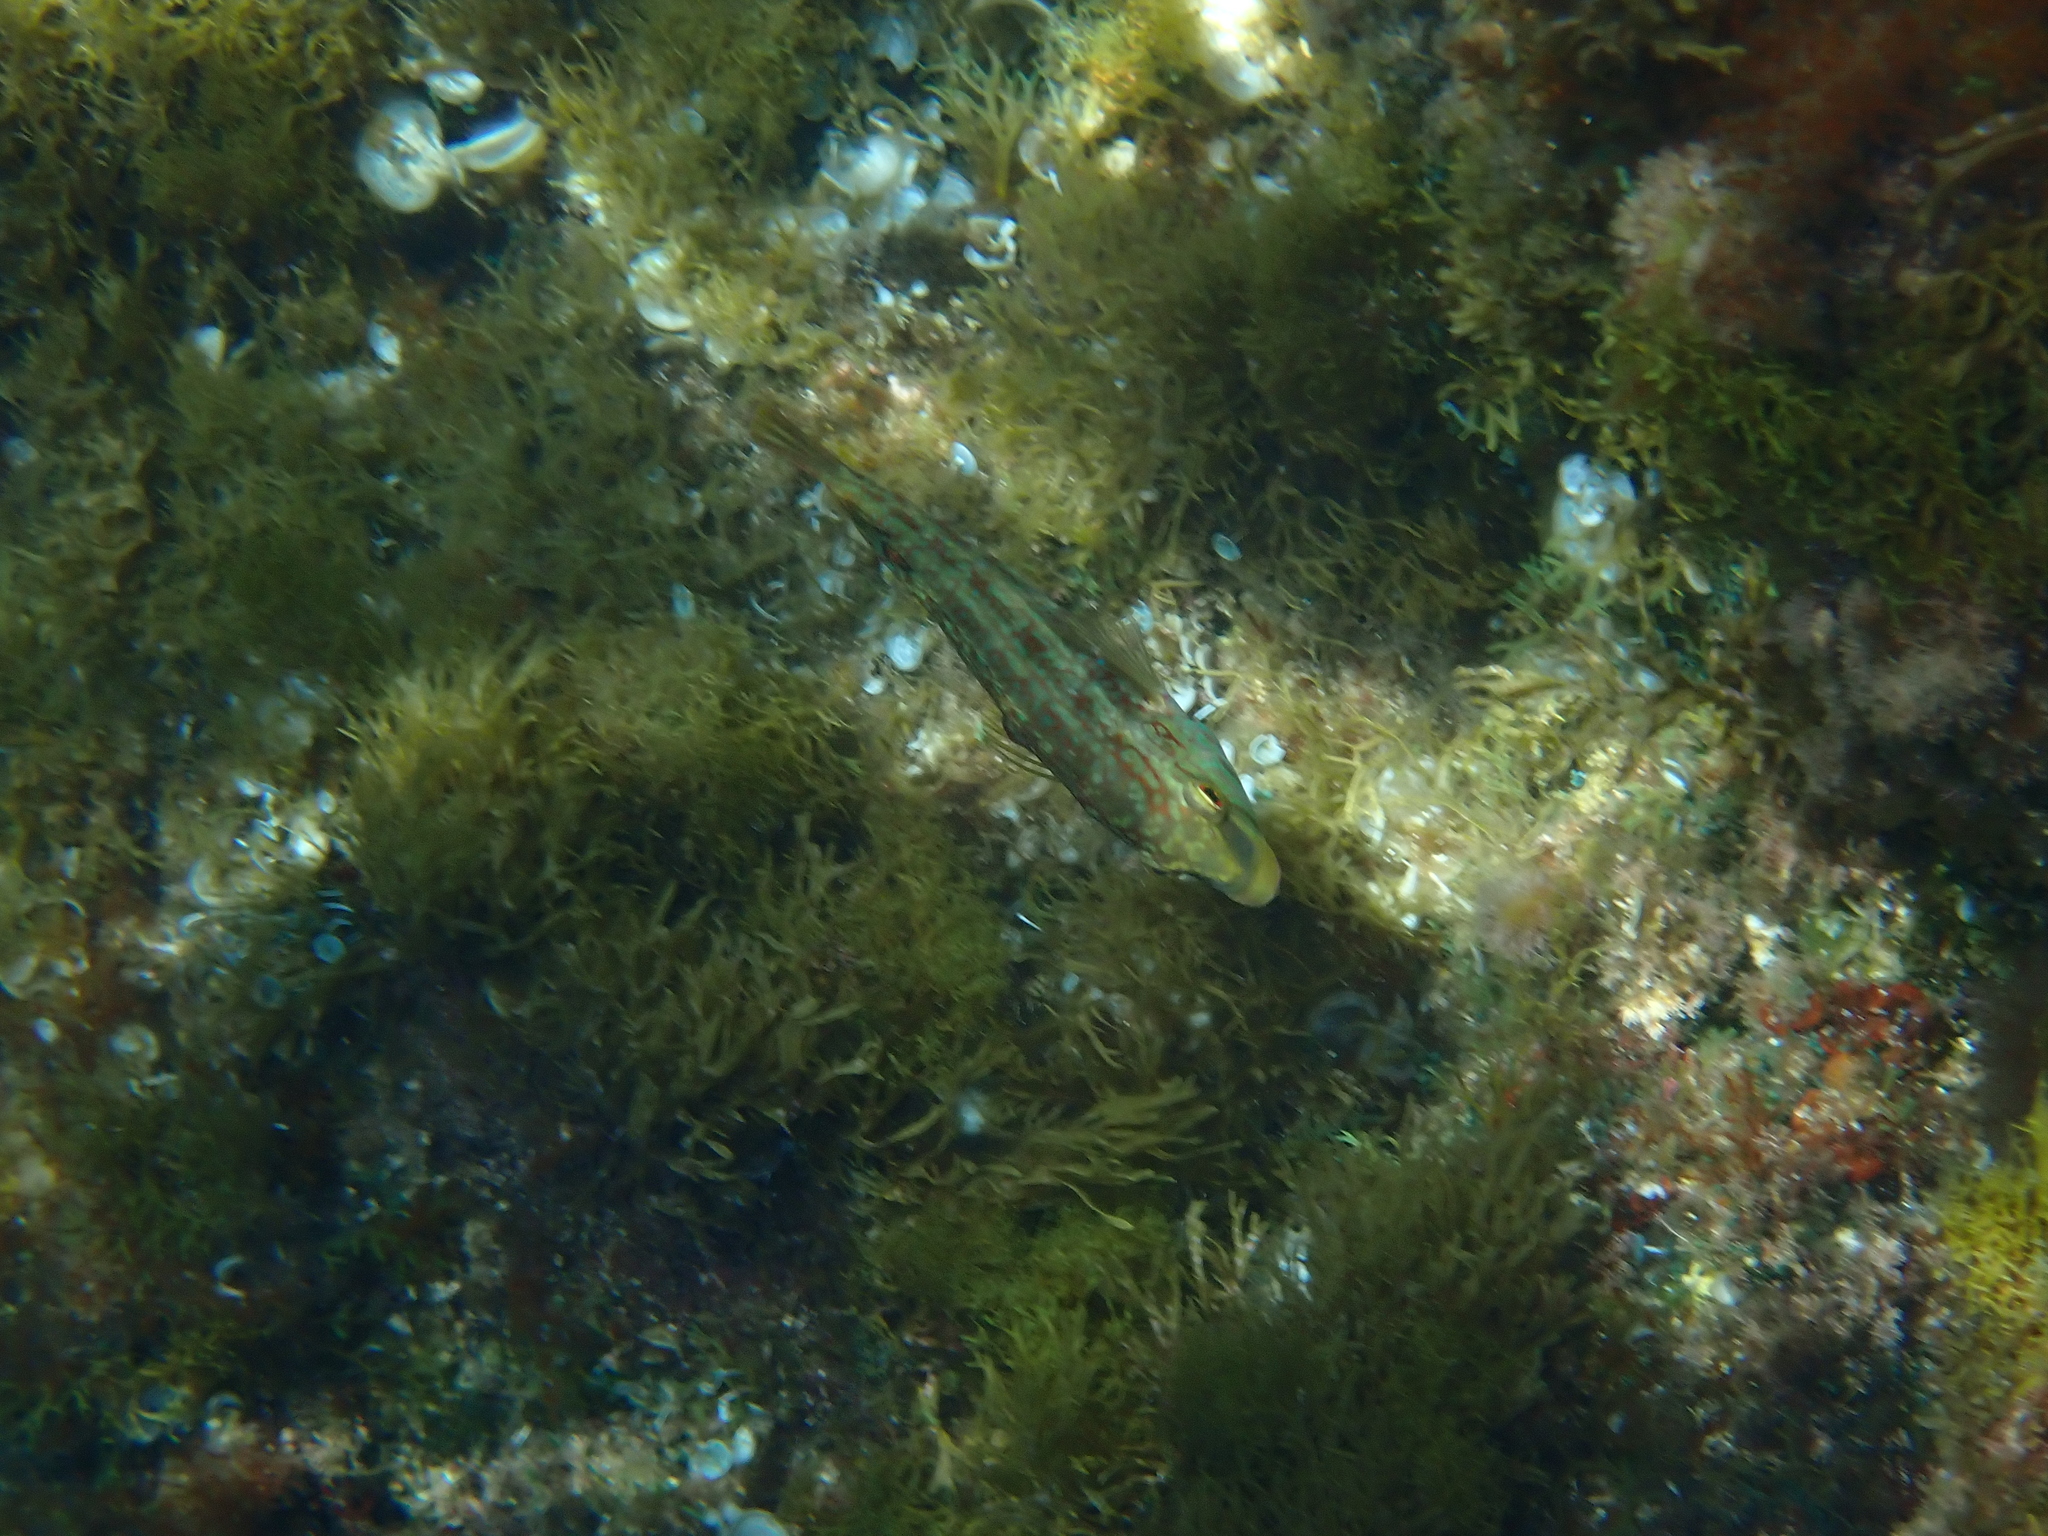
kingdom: Animalia
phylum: Chordata
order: Perciformes
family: Labridae
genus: Symphodus
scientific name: Symphodus roissali
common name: Five-spotted wrasse
